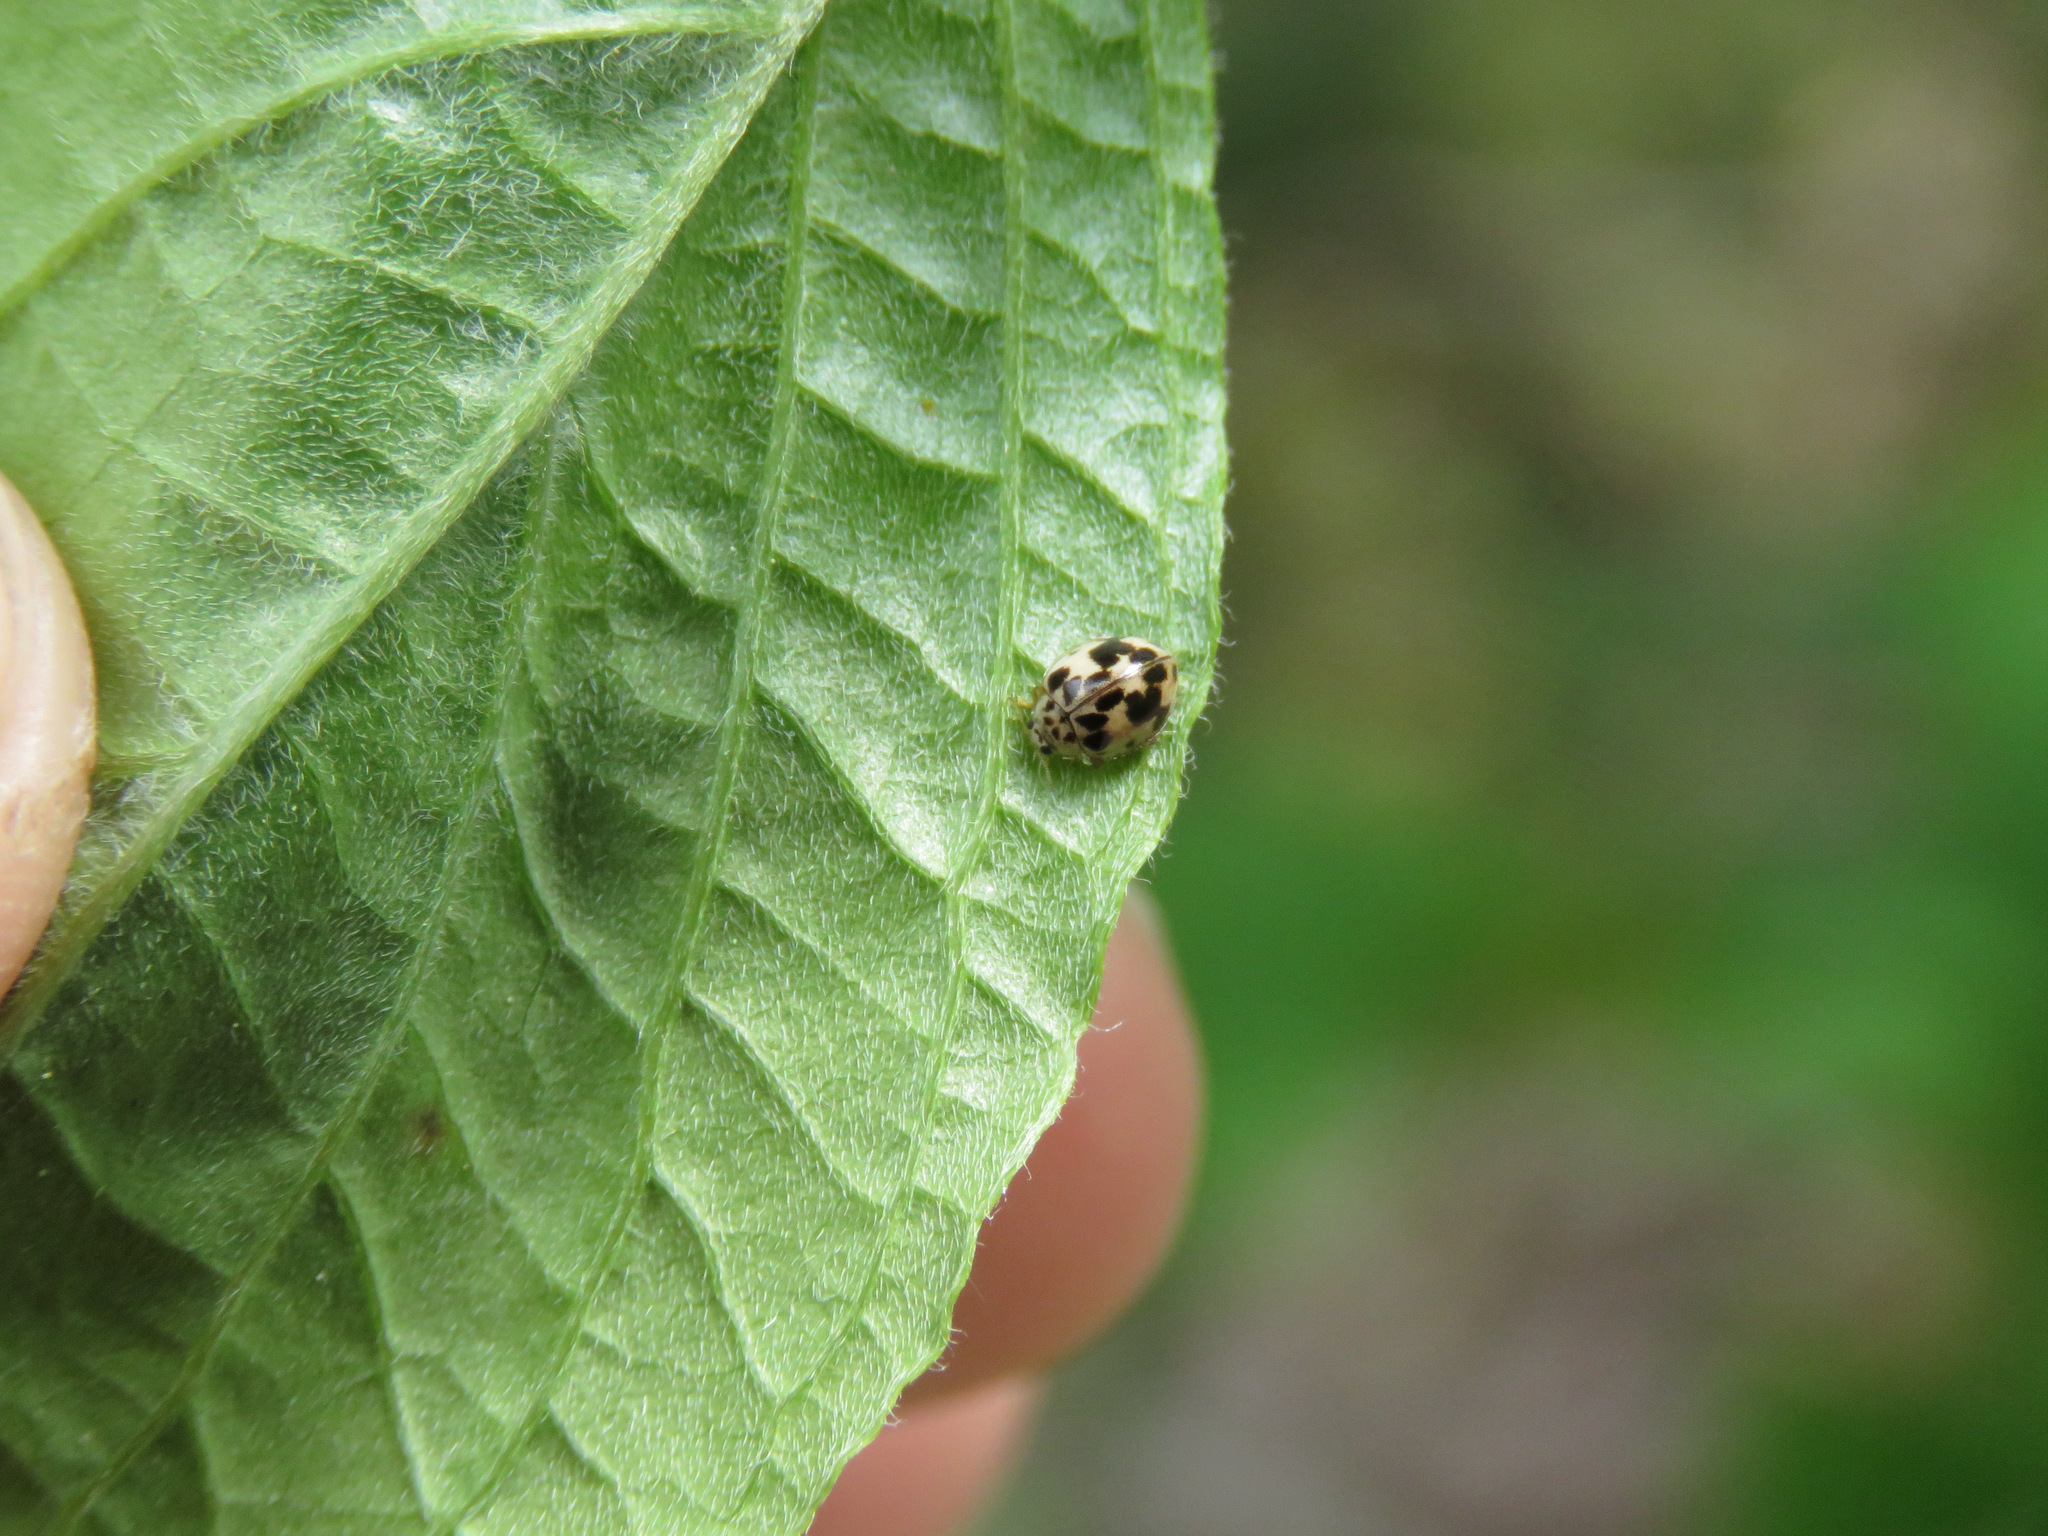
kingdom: Animalia
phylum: Arthropoda
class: Insecta
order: Coleoptera
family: Coccinellidae
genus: Psyllobora
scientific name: Psyllobora borealis
